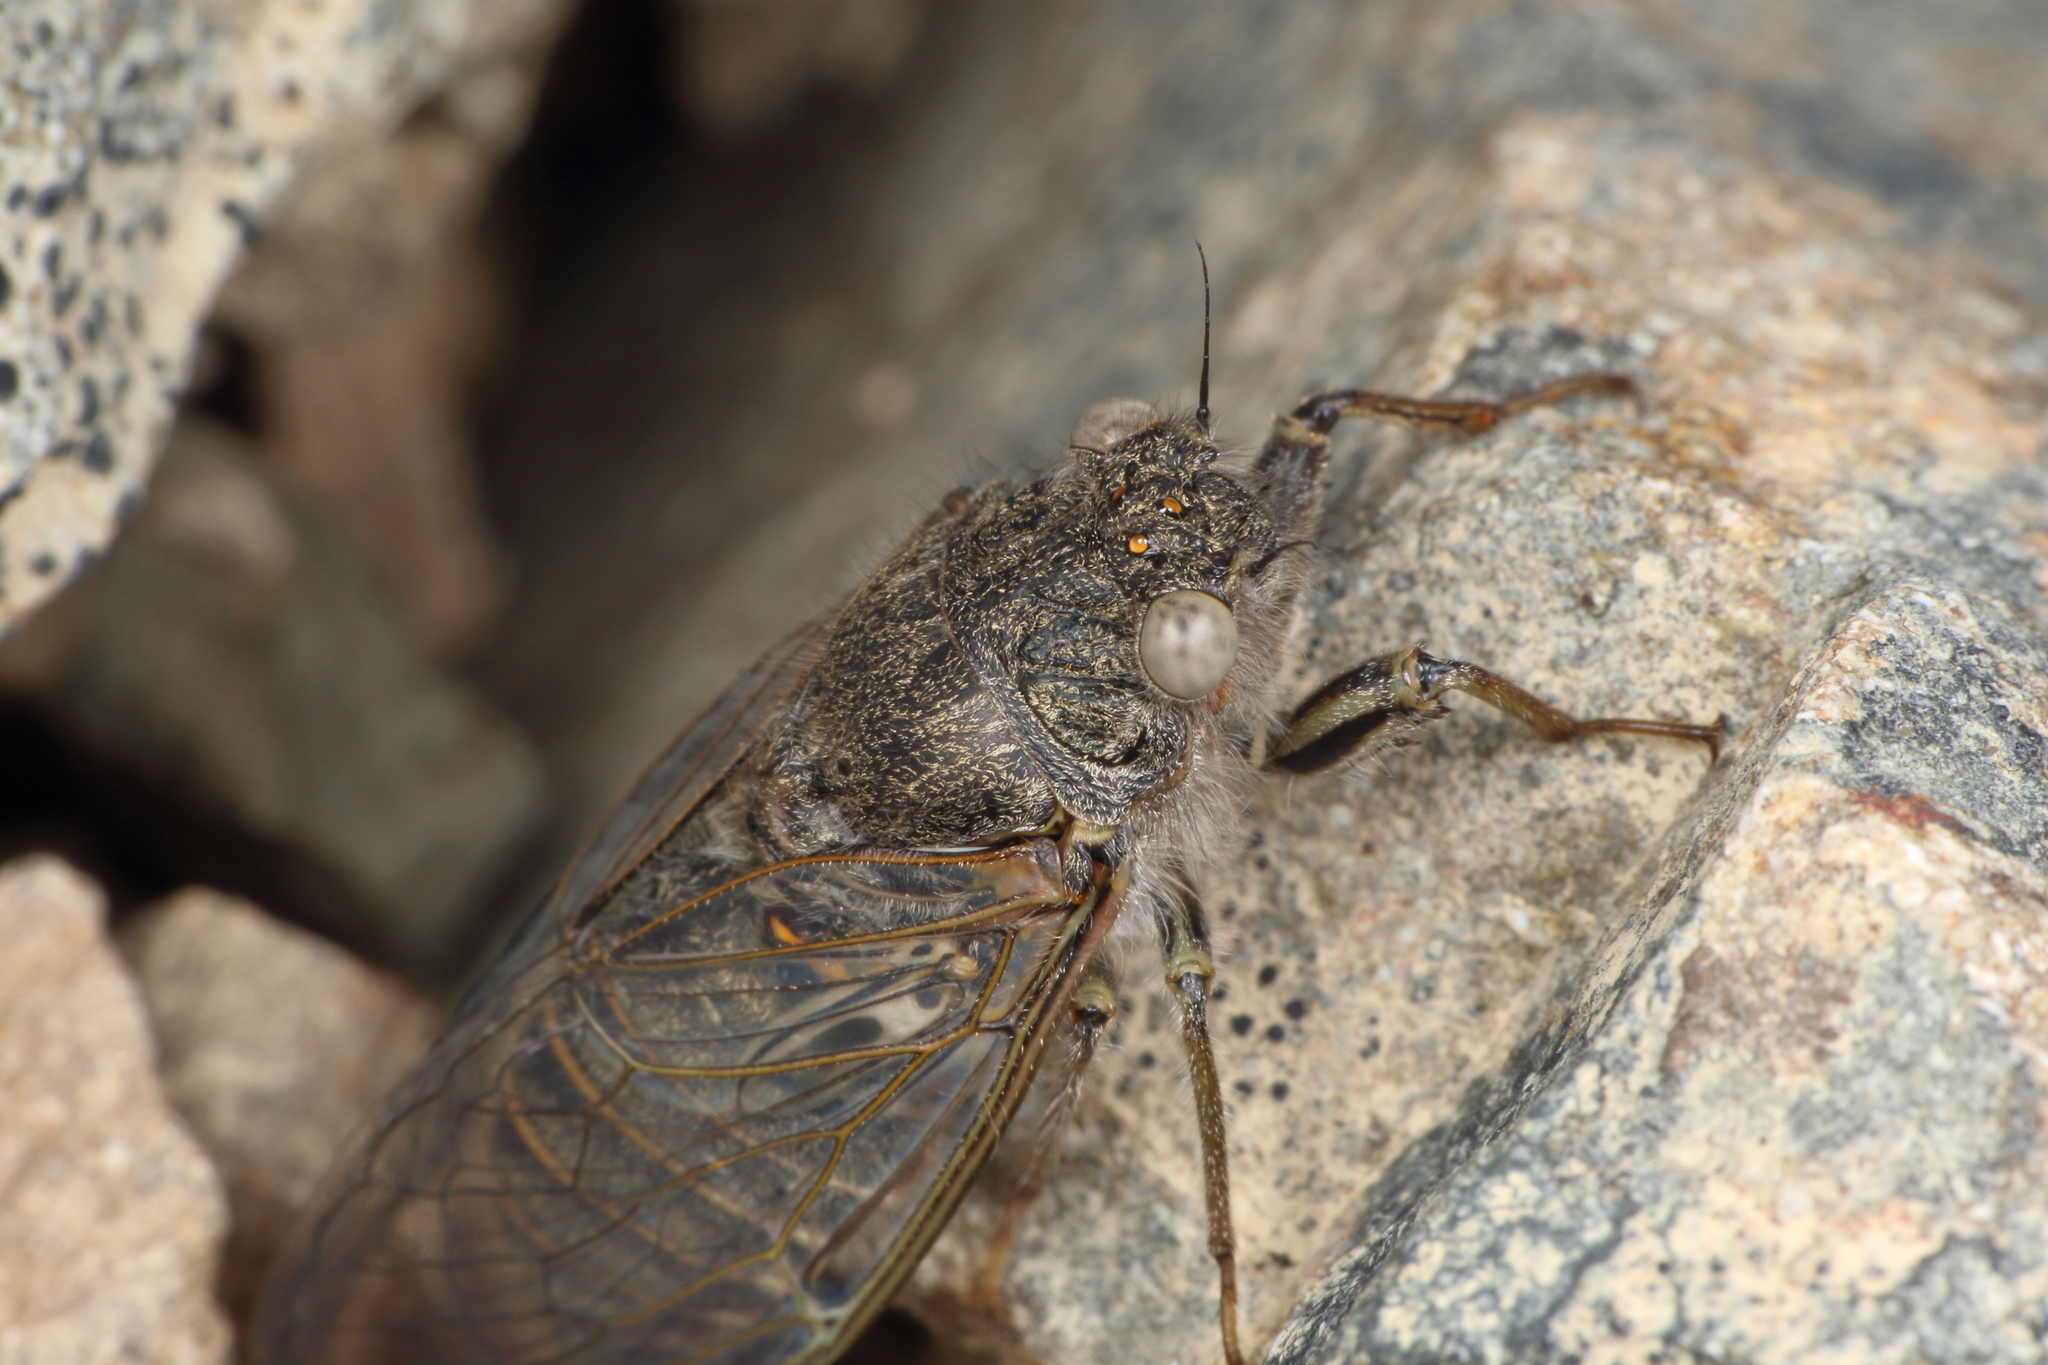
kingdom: Animalia
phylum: Arthropoda
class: Insecta
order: Hemiptera
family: Cicadidae
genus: Maoricicada
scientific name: Maoricicada mangu
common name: Canterbury scree cicada
